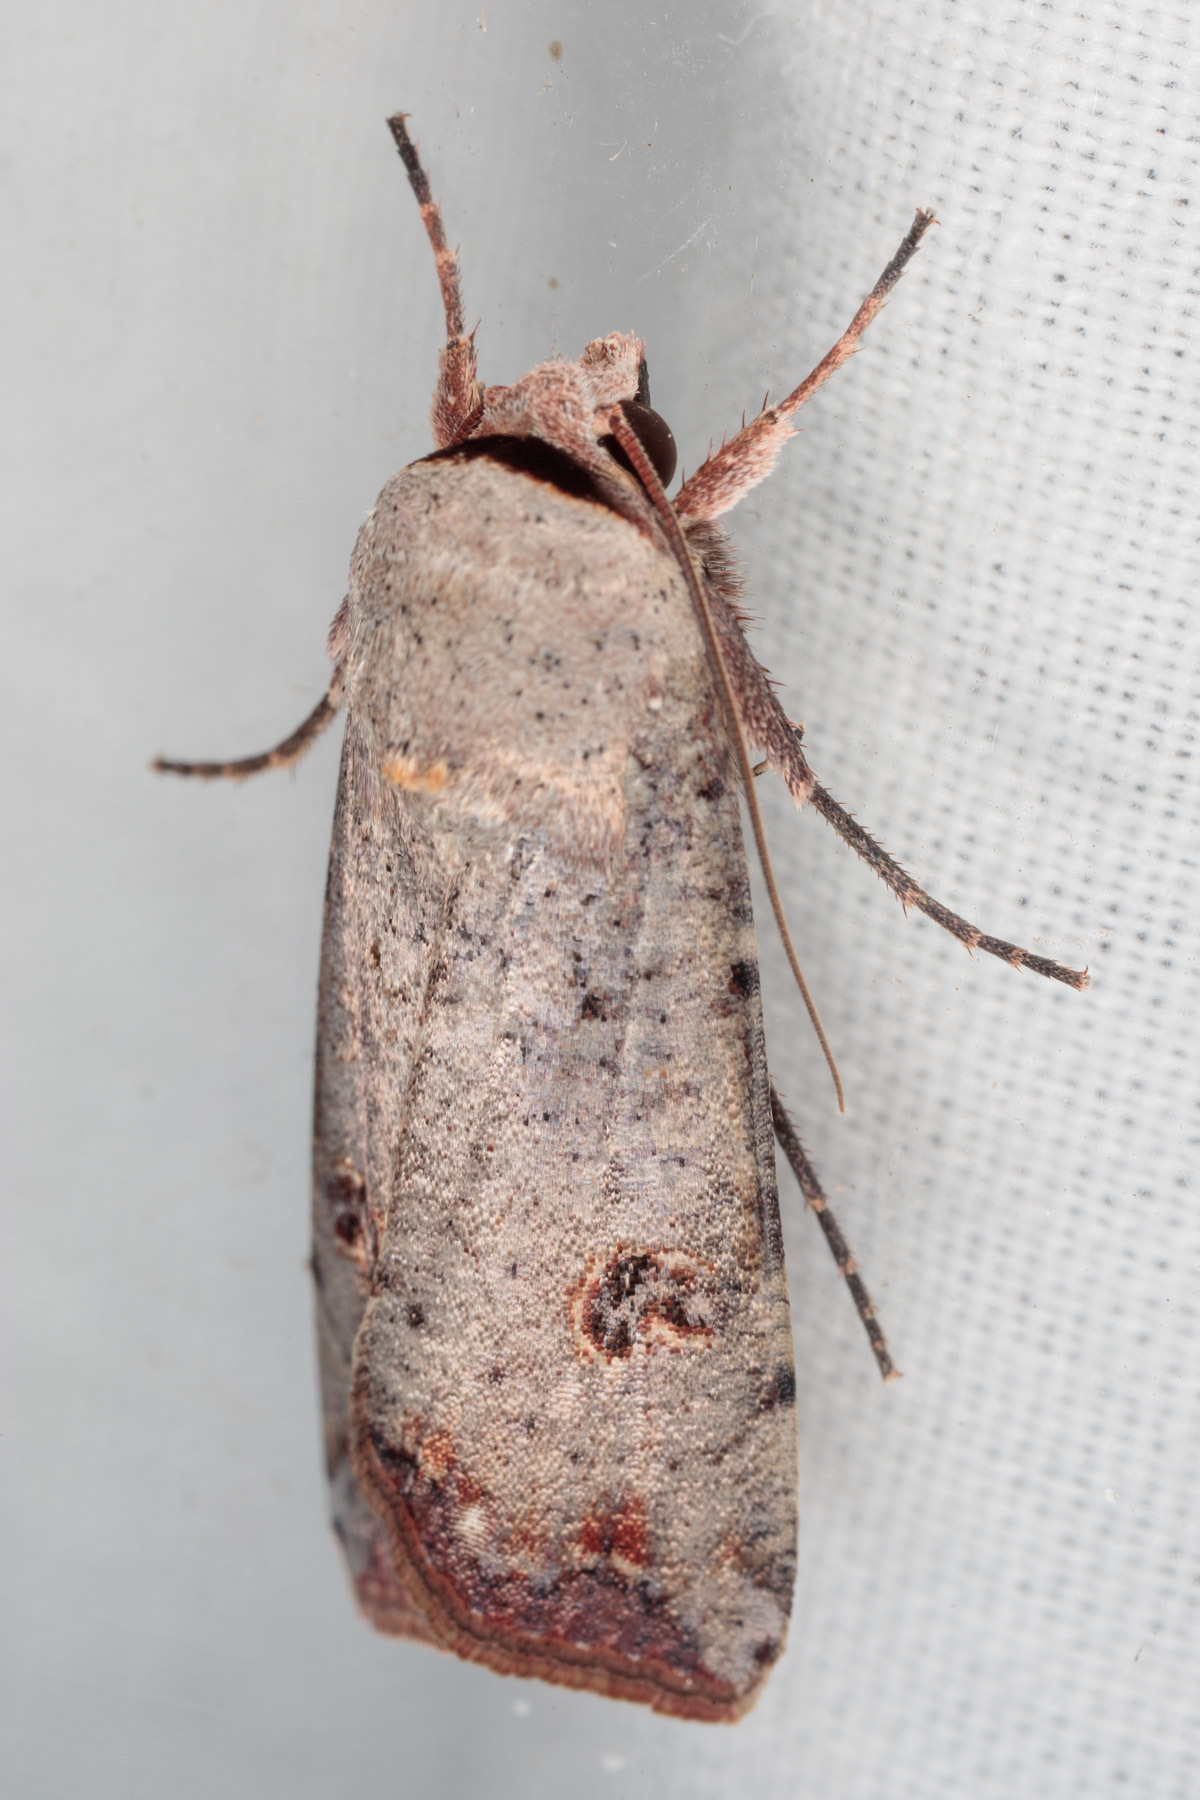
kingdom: Animalia
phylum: Arthropoda
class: Insecta
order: Lepidoptera
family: Noctuidae
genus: Anicla
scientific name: Anicla infecta
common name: Green cutworm
